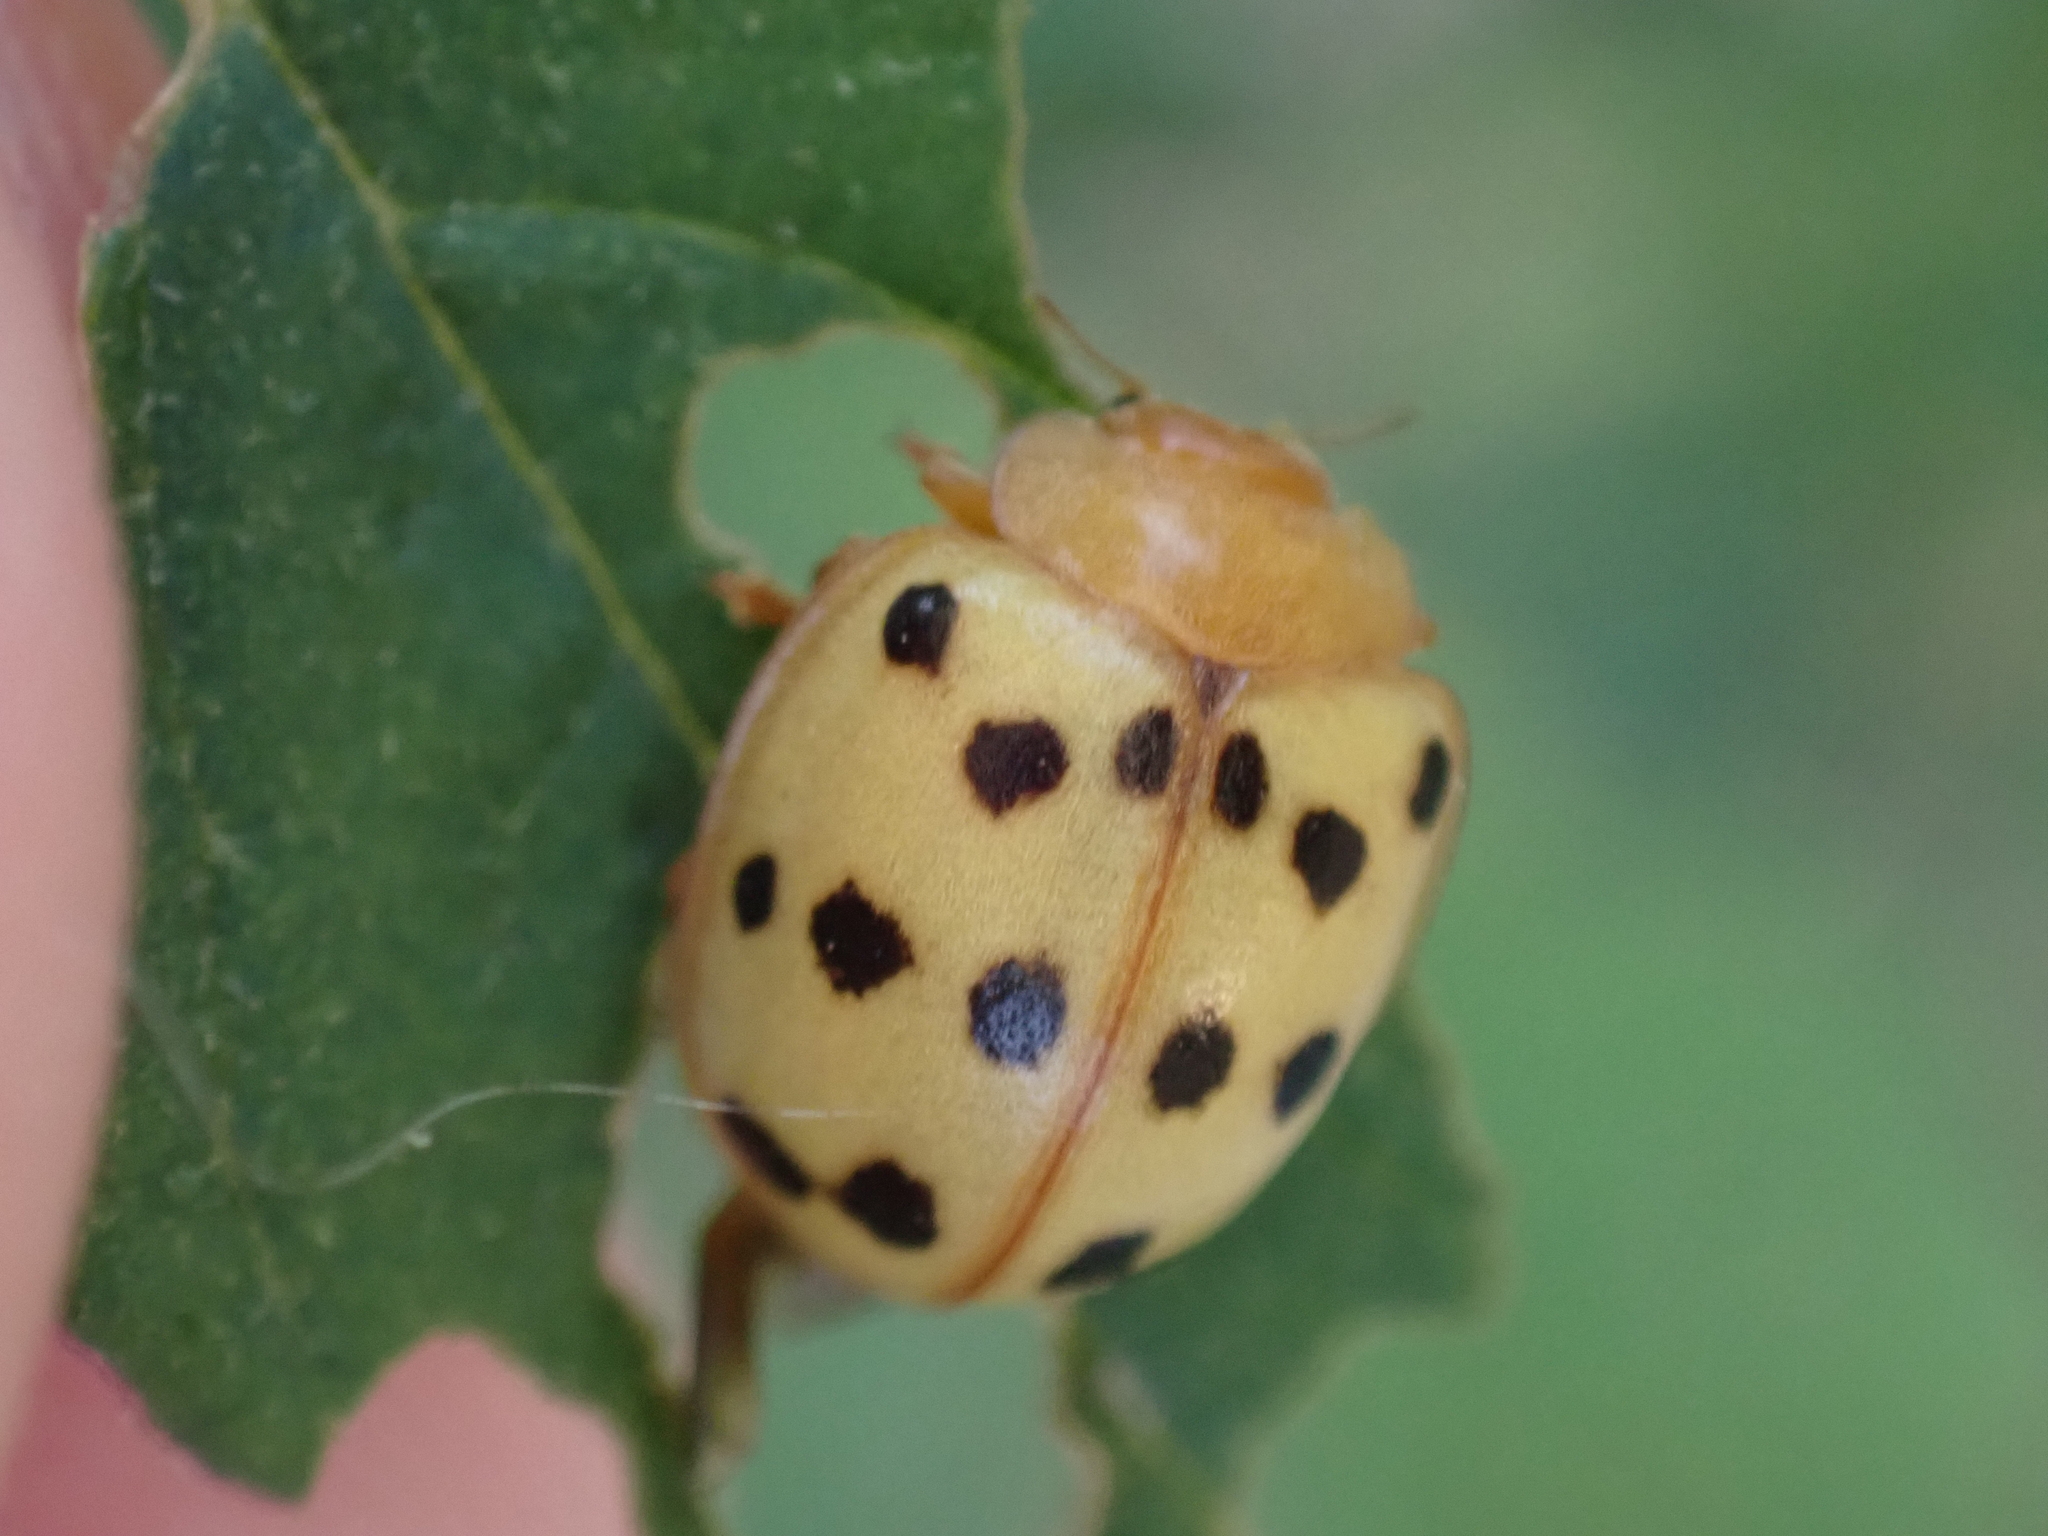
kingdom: Animalia
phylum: Arthropoda
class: Insecta
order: Coleoptera
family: Coccinellidae
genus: Epilachna
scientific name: Epilachna varivestis
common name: Ladybird beetle
